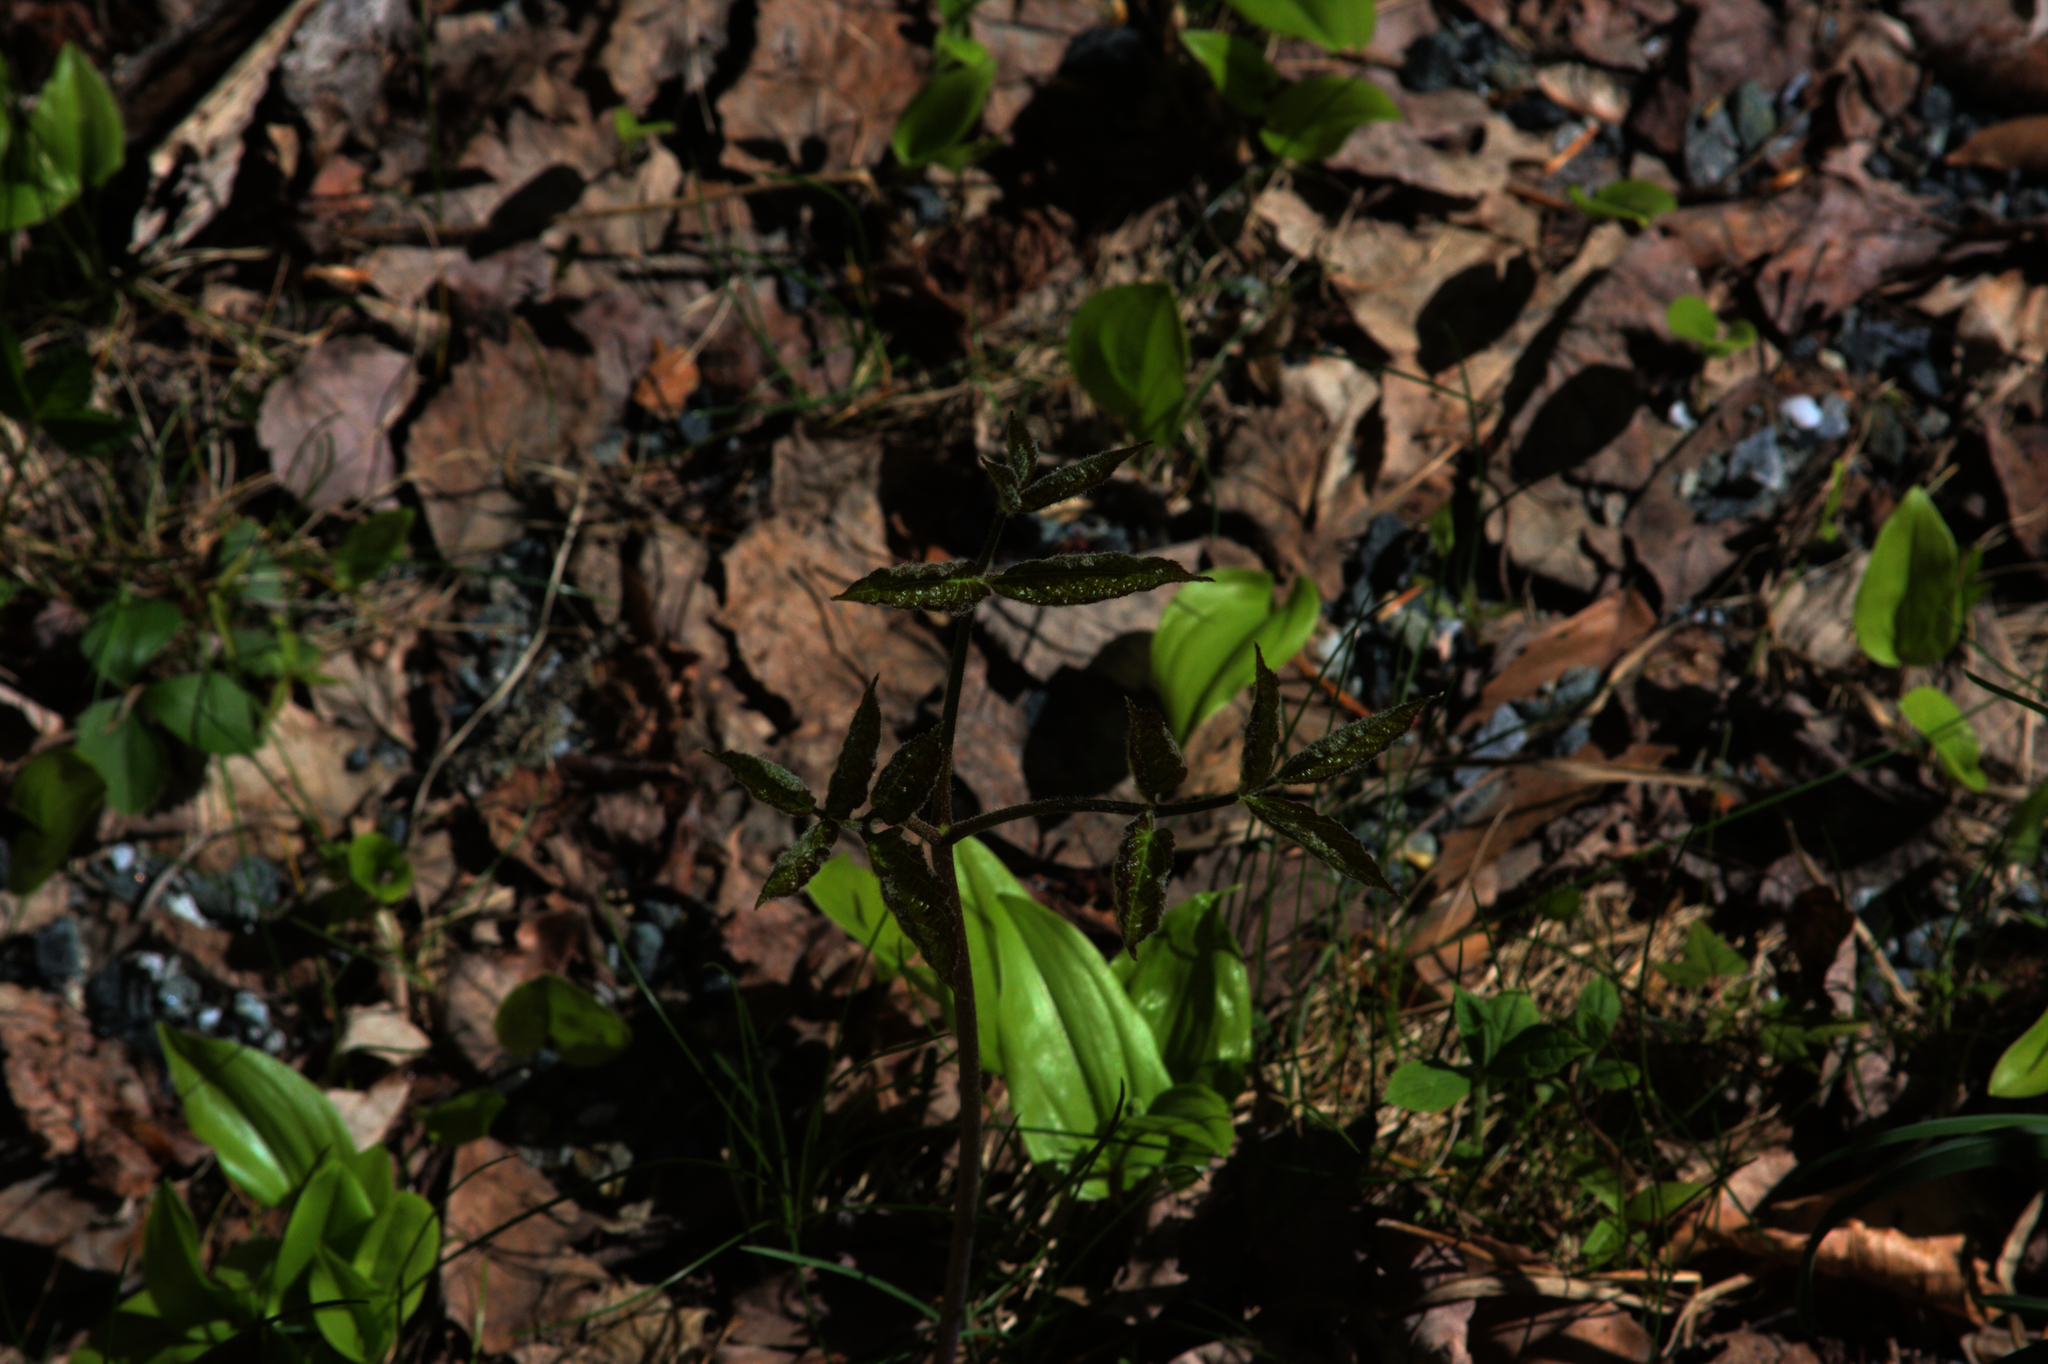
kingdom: Plantae
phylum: Tracheophyta
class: Liliopsida
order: Asparagales
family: Asparagaceae
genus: Maianthemum
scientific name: Maianthemum canadense
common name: False lily-of-the-valley
